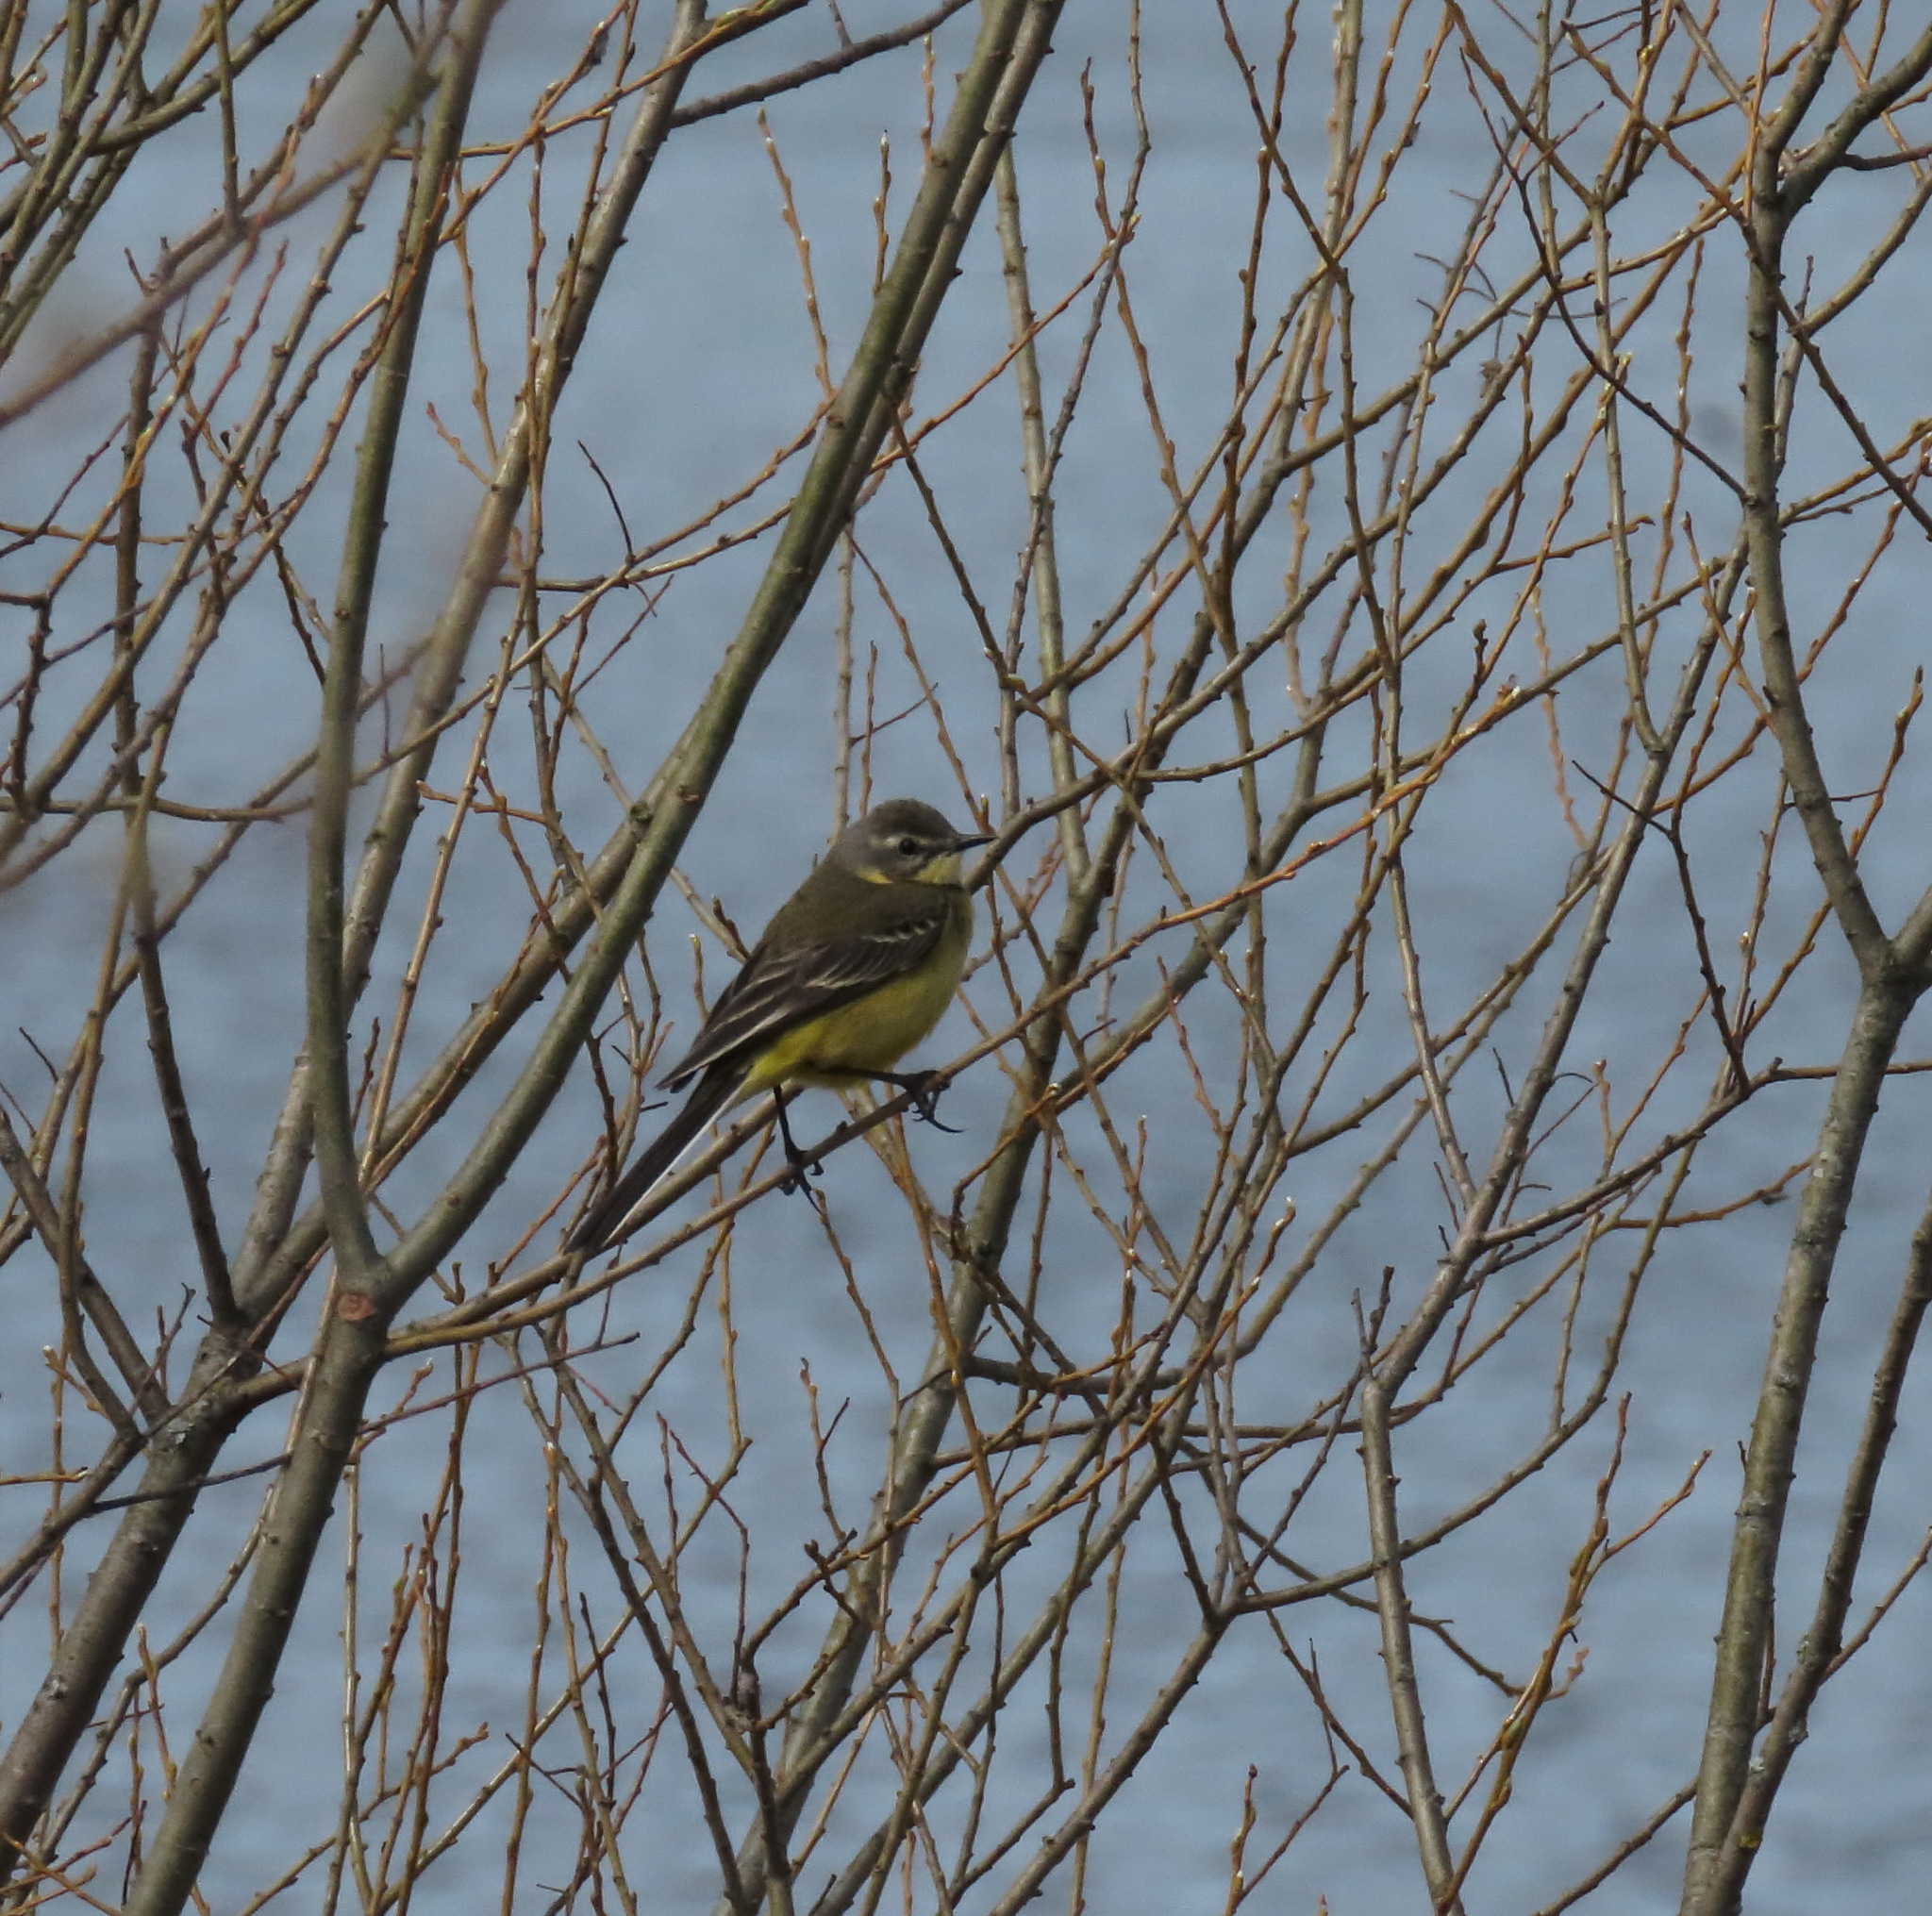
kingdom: Animalia
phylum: Chordata
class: Aves
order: Passeriformes
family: Motacillidae
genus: Motacilla
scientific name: Motacilla flava
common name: Western yellow wagtail
